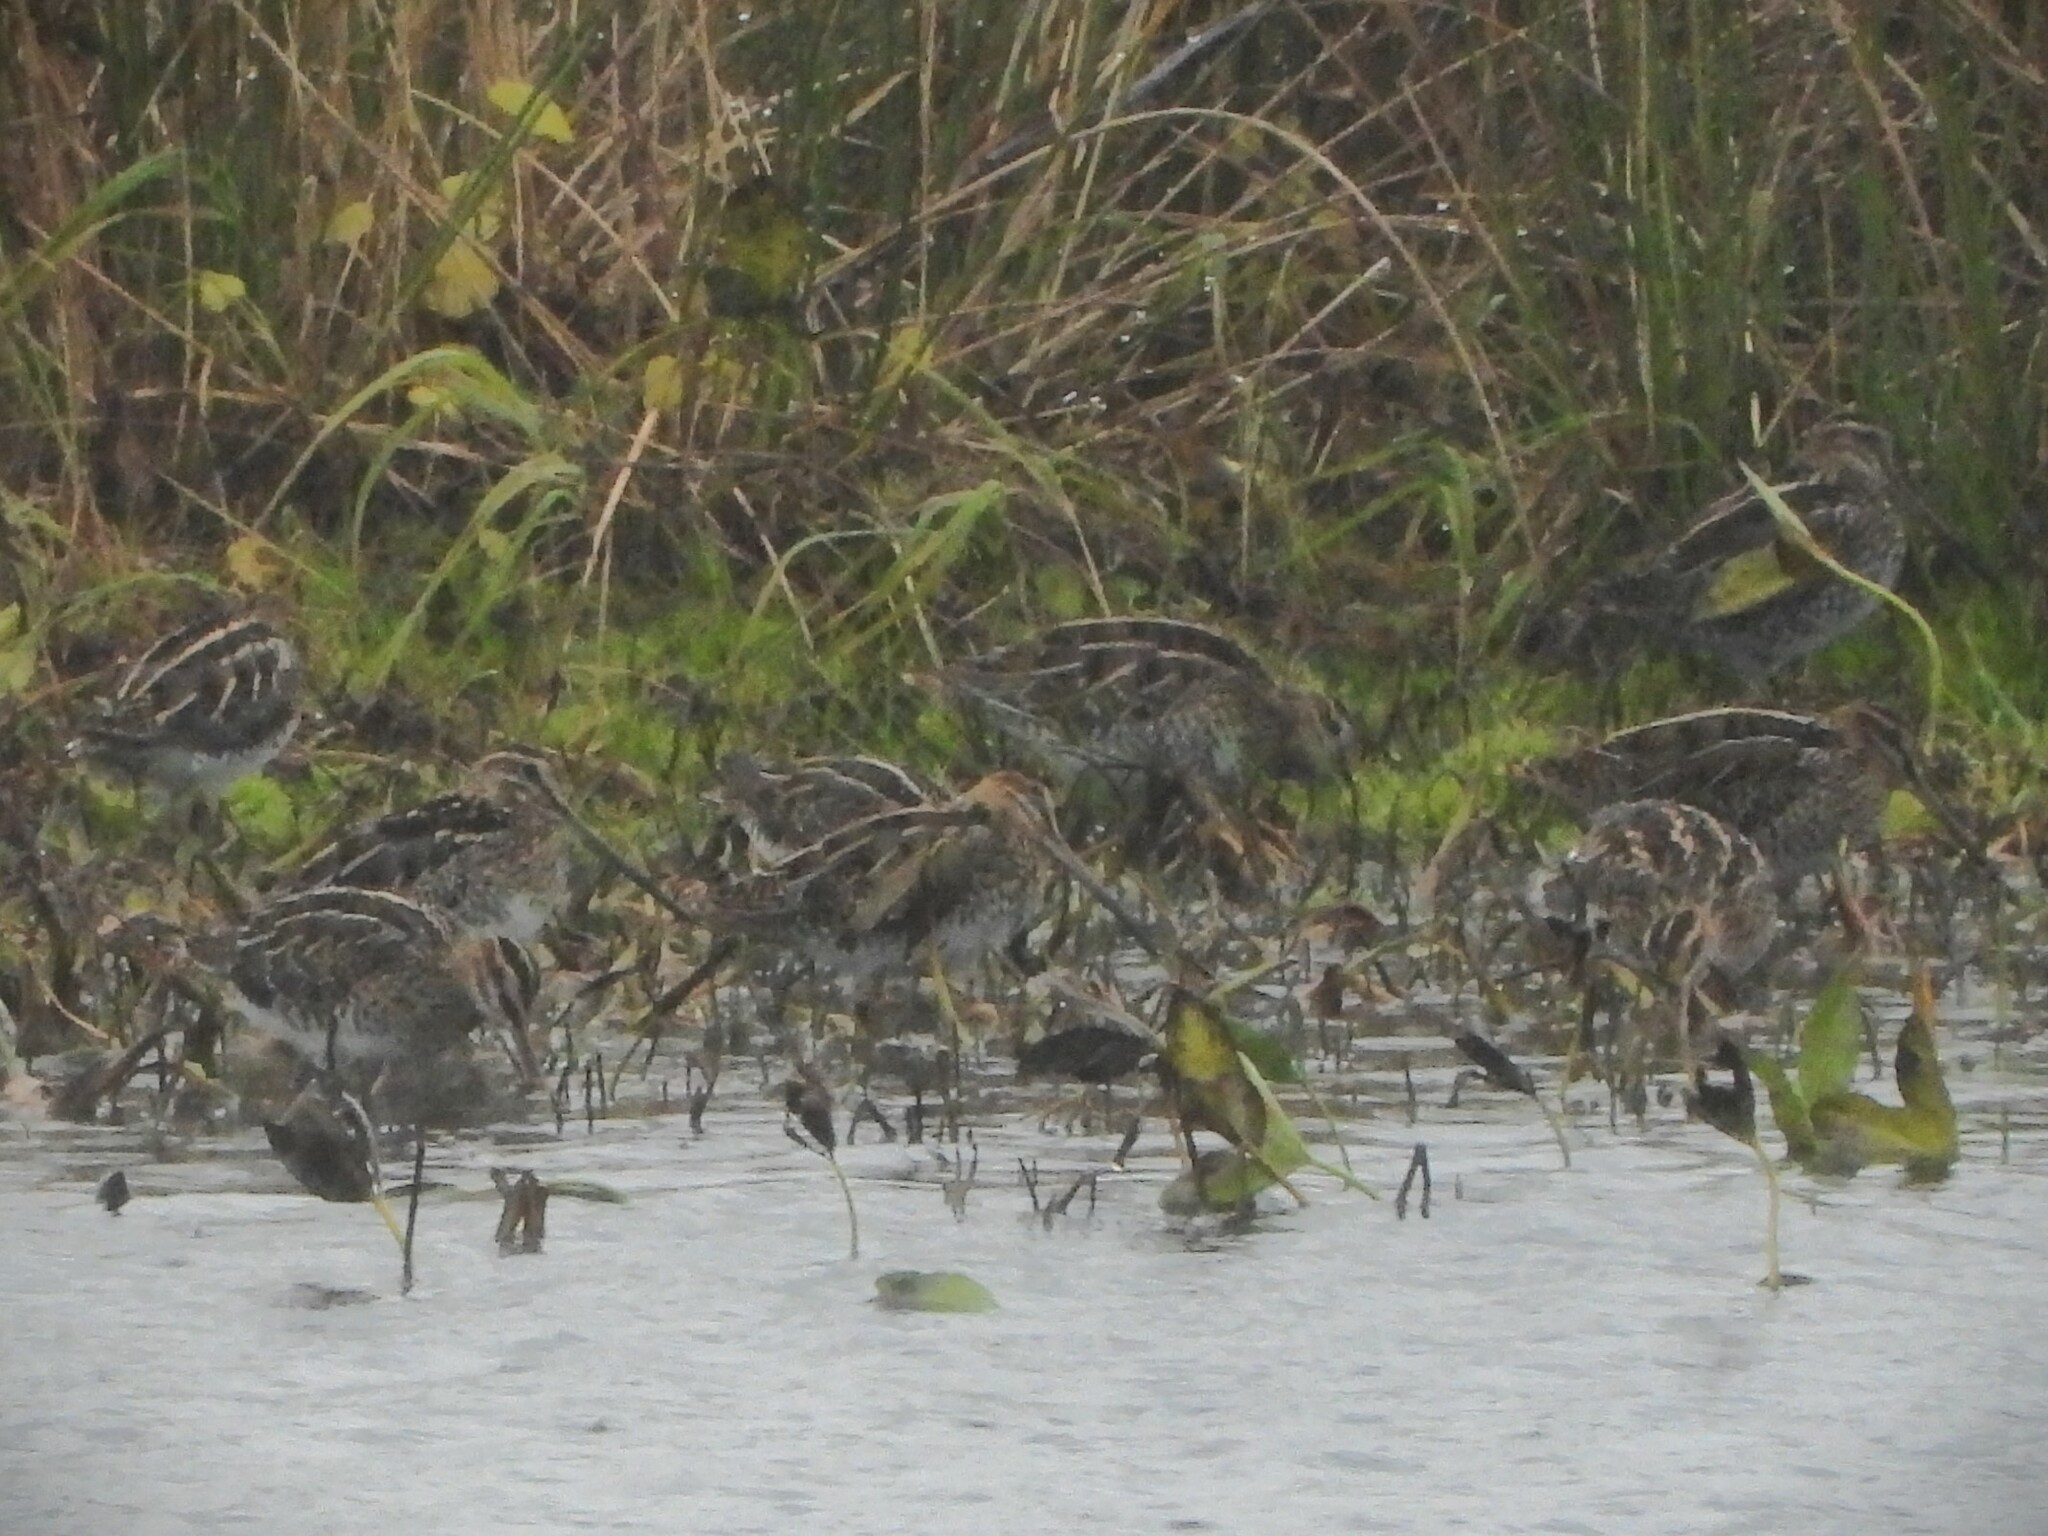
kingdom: Animalia
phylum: Chordata
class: Aves
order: Charadriiformes
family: Scolopacidae
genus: Gallinago
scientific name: Gallinago gallinago
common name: Common snipe
